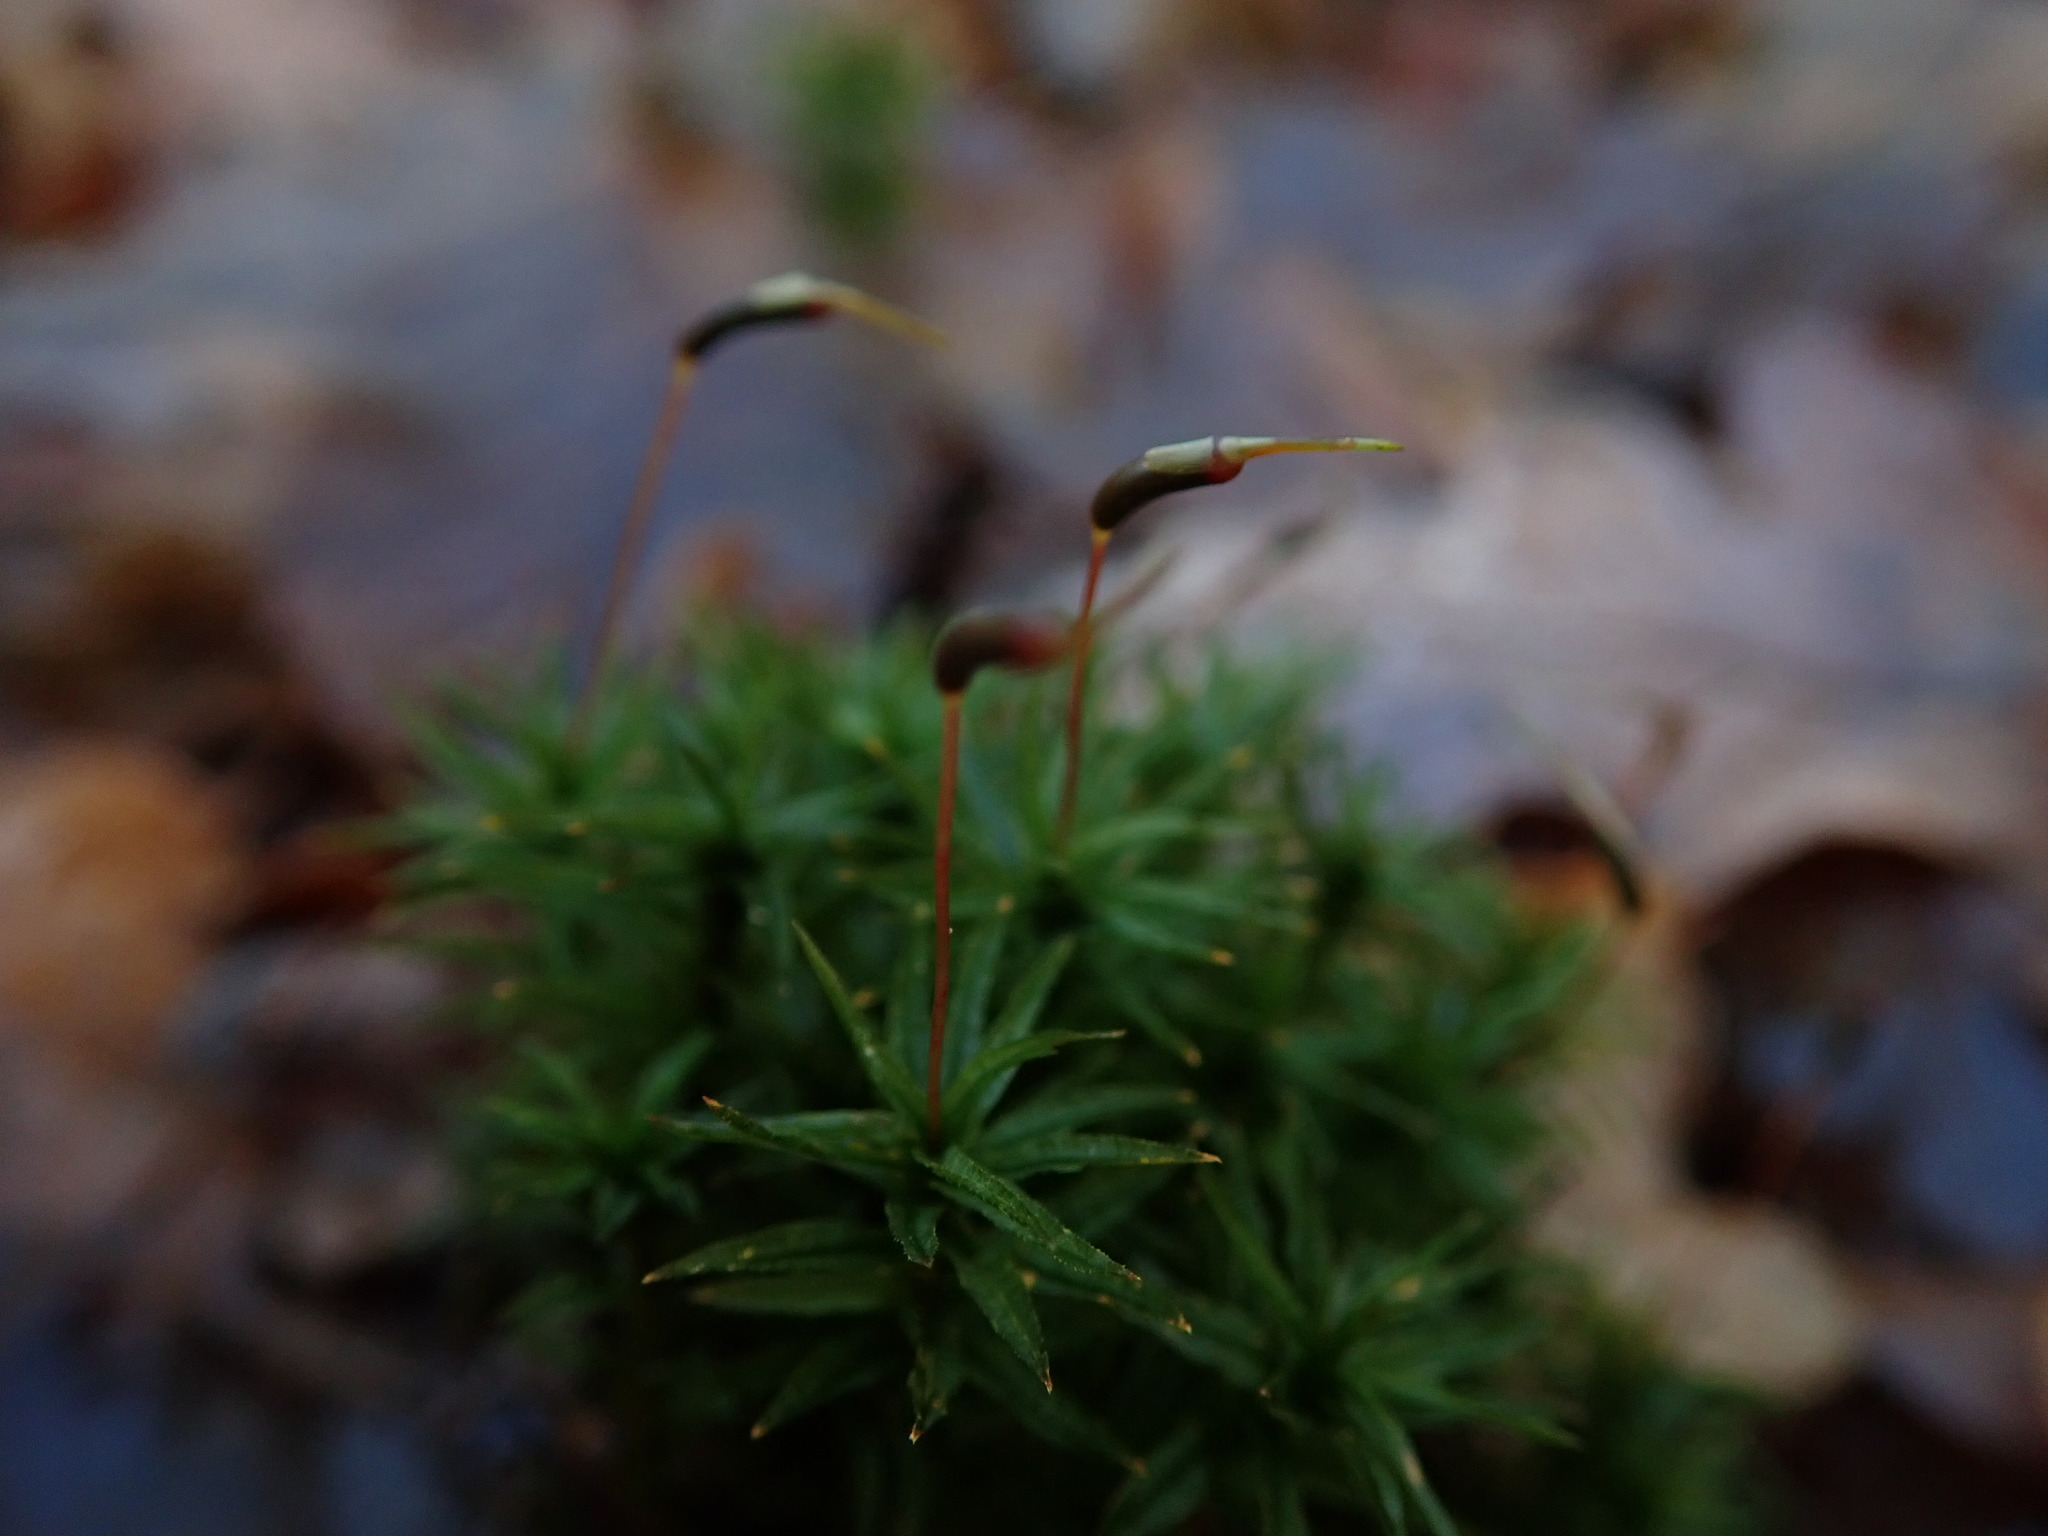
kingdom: Plantae
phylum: Bryophyta
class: Polytrichopsida
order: Polytrichales
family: Polytrichaceae
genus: Atrichum
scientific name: Atrichum undulatum
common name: Common smoothcap
